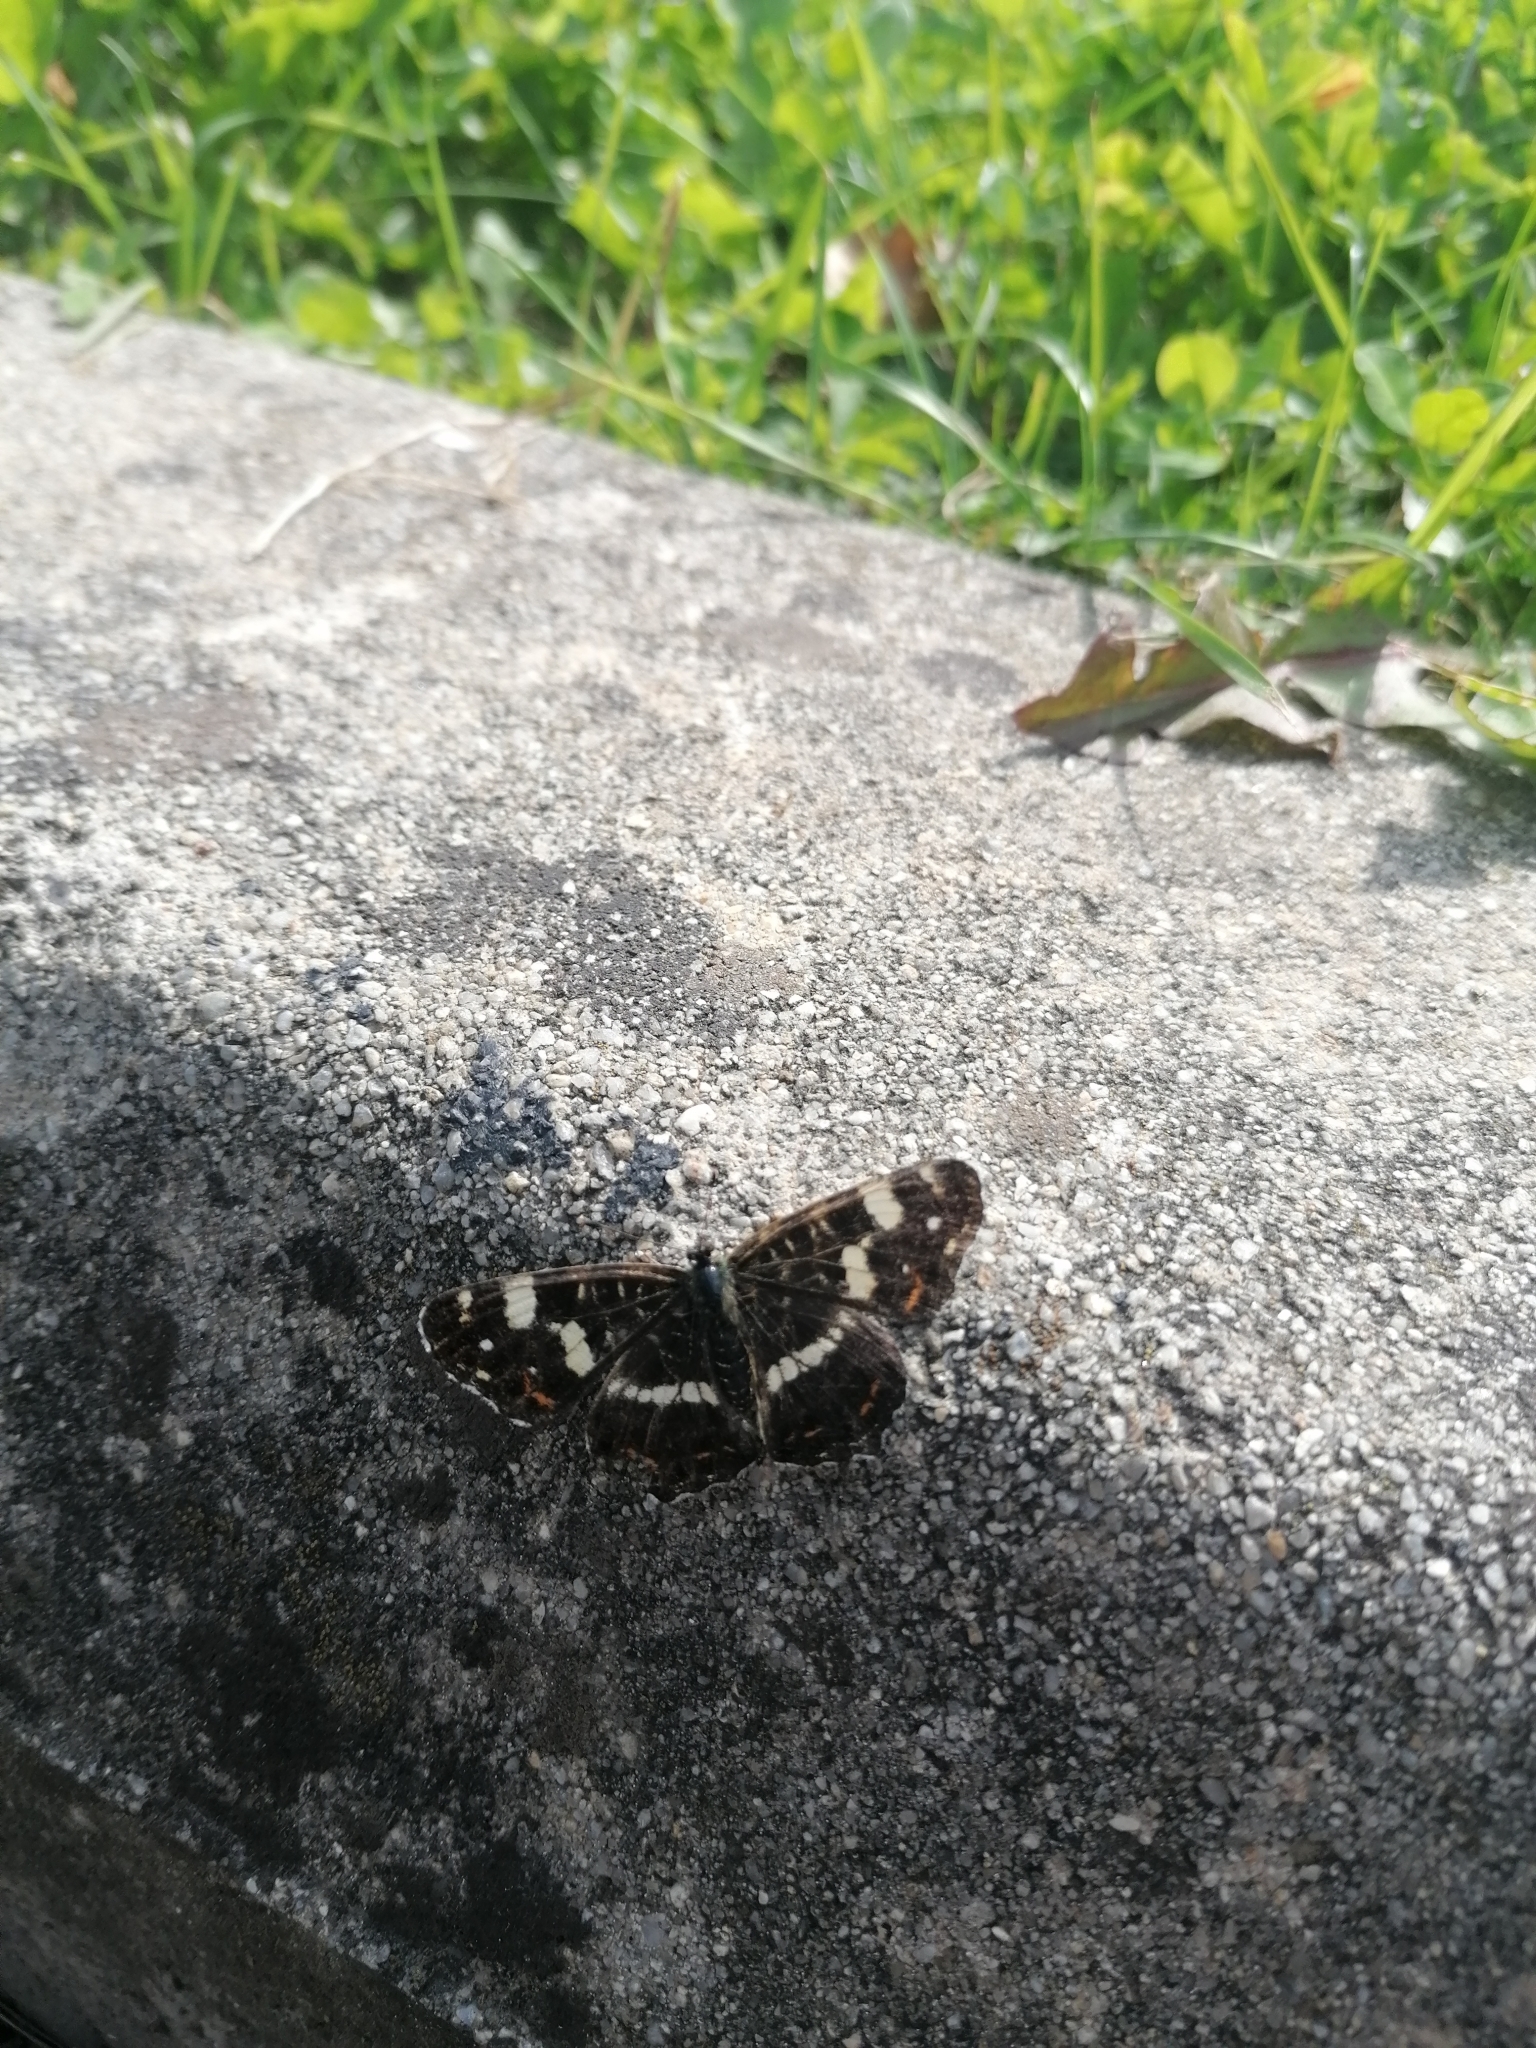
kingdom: Animalia
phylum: Arthropoda
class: Insecta
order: Lepidoptera
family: Nymphalidae
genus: Araschnia
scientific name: Araschnia levana
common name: Map butterfly
